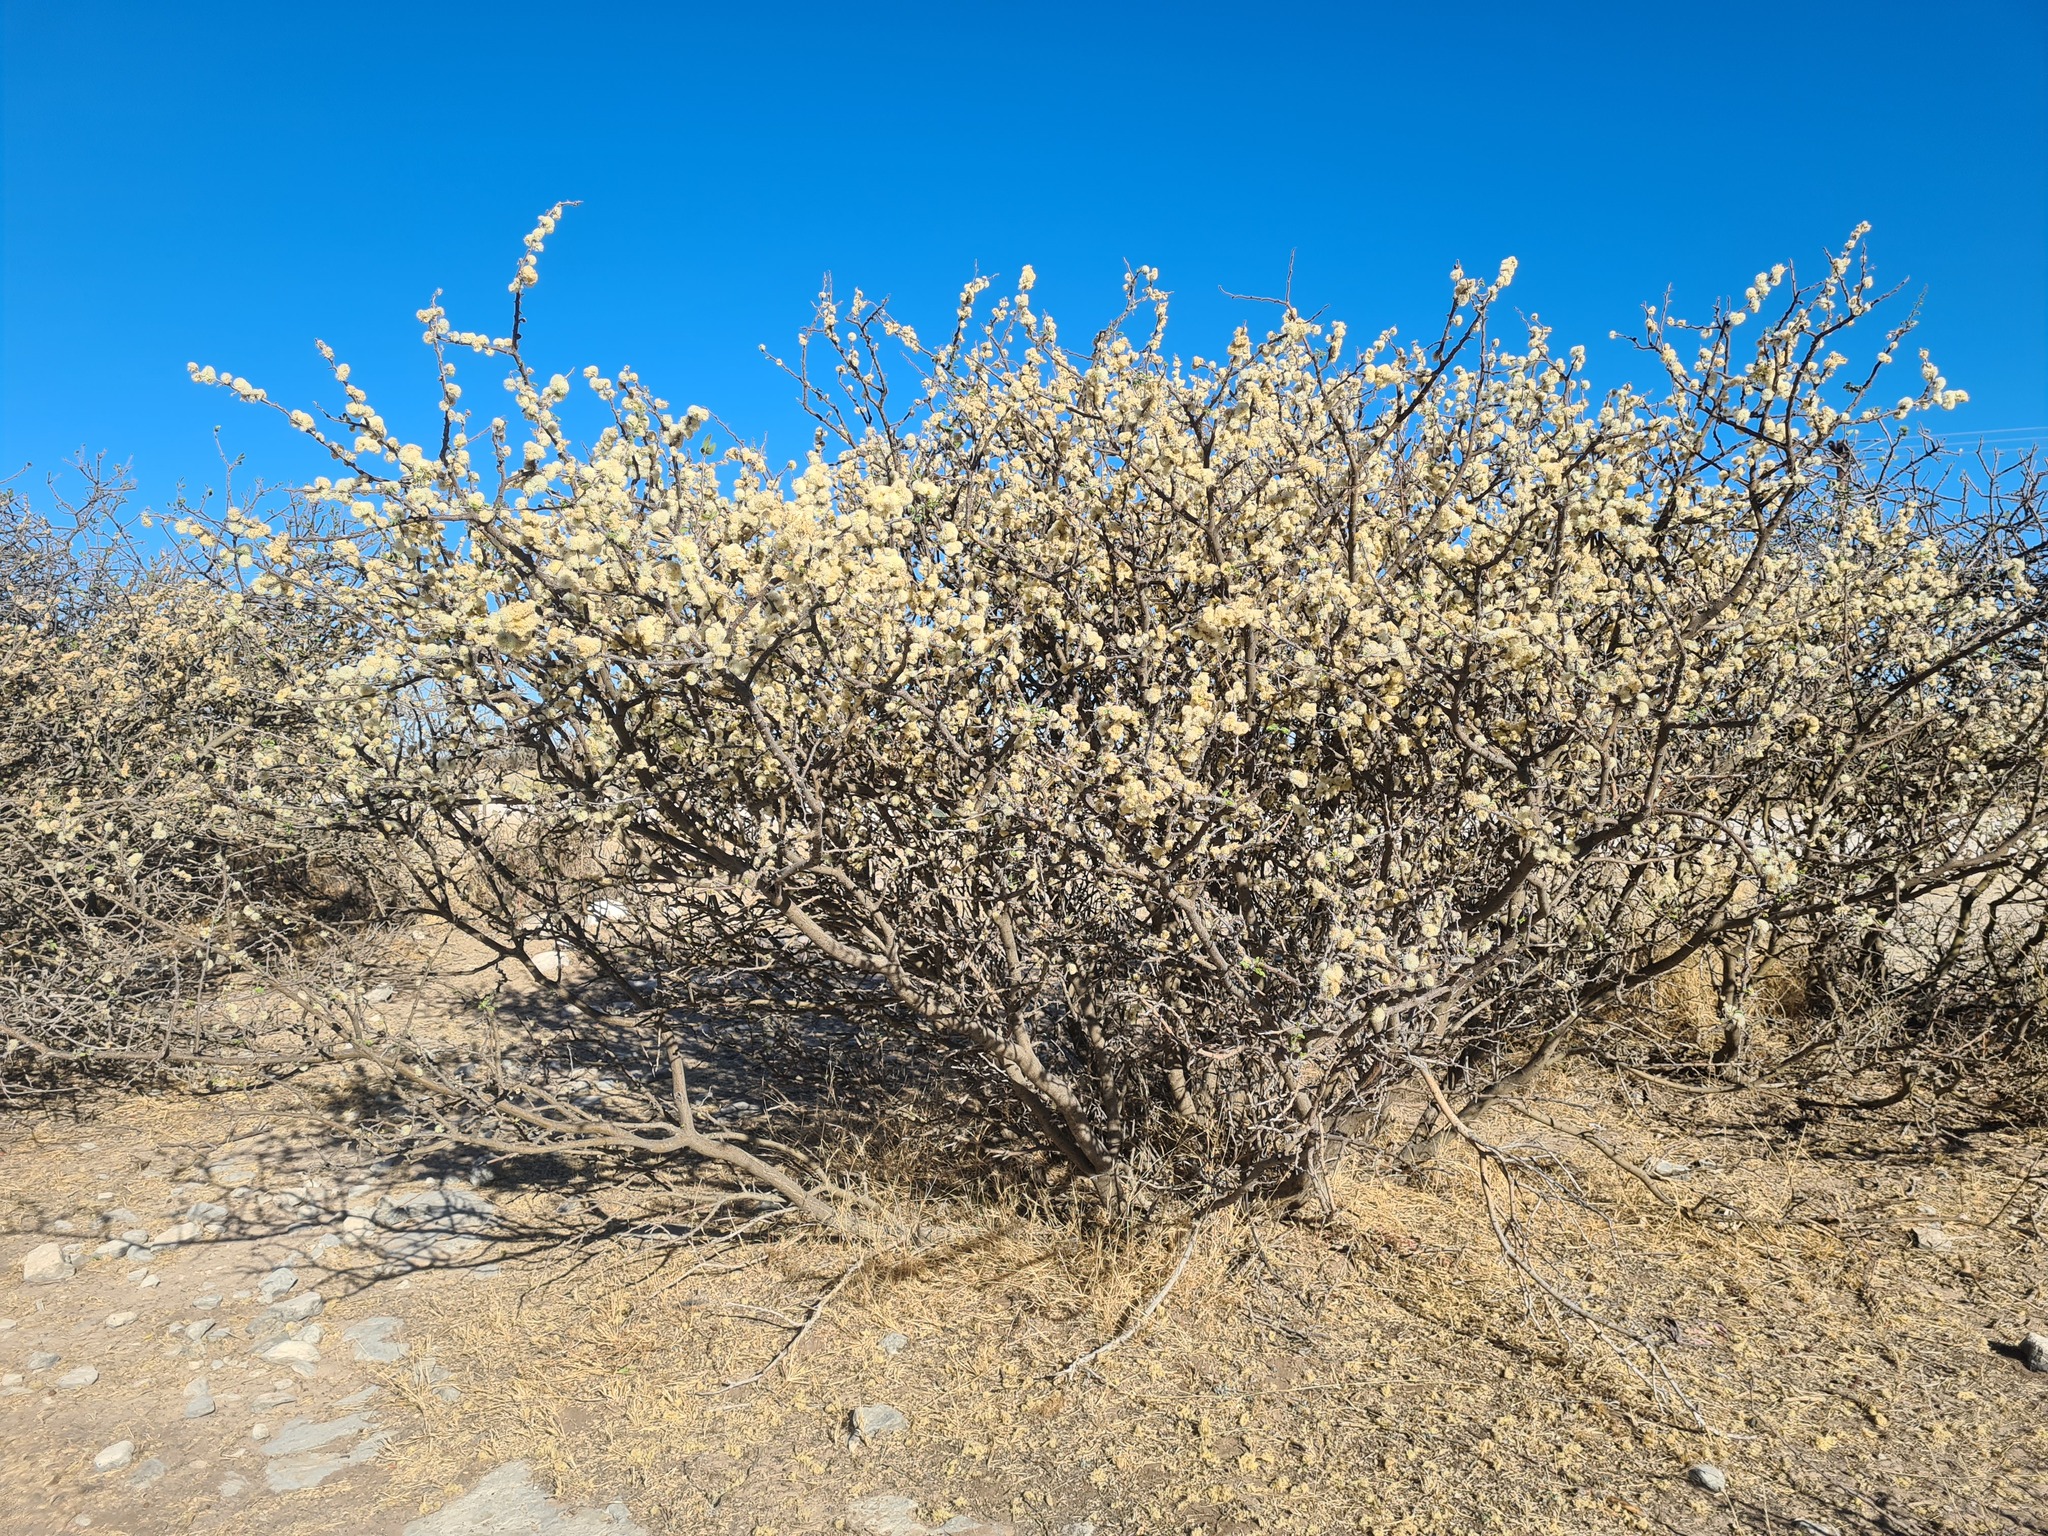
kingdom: Plantae
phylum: Tracheophyta
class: Magnoliopsida
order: Fabales
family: Fabaceae
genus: Senegalia
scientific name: Senegalia mellifera
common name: Hookthorn
